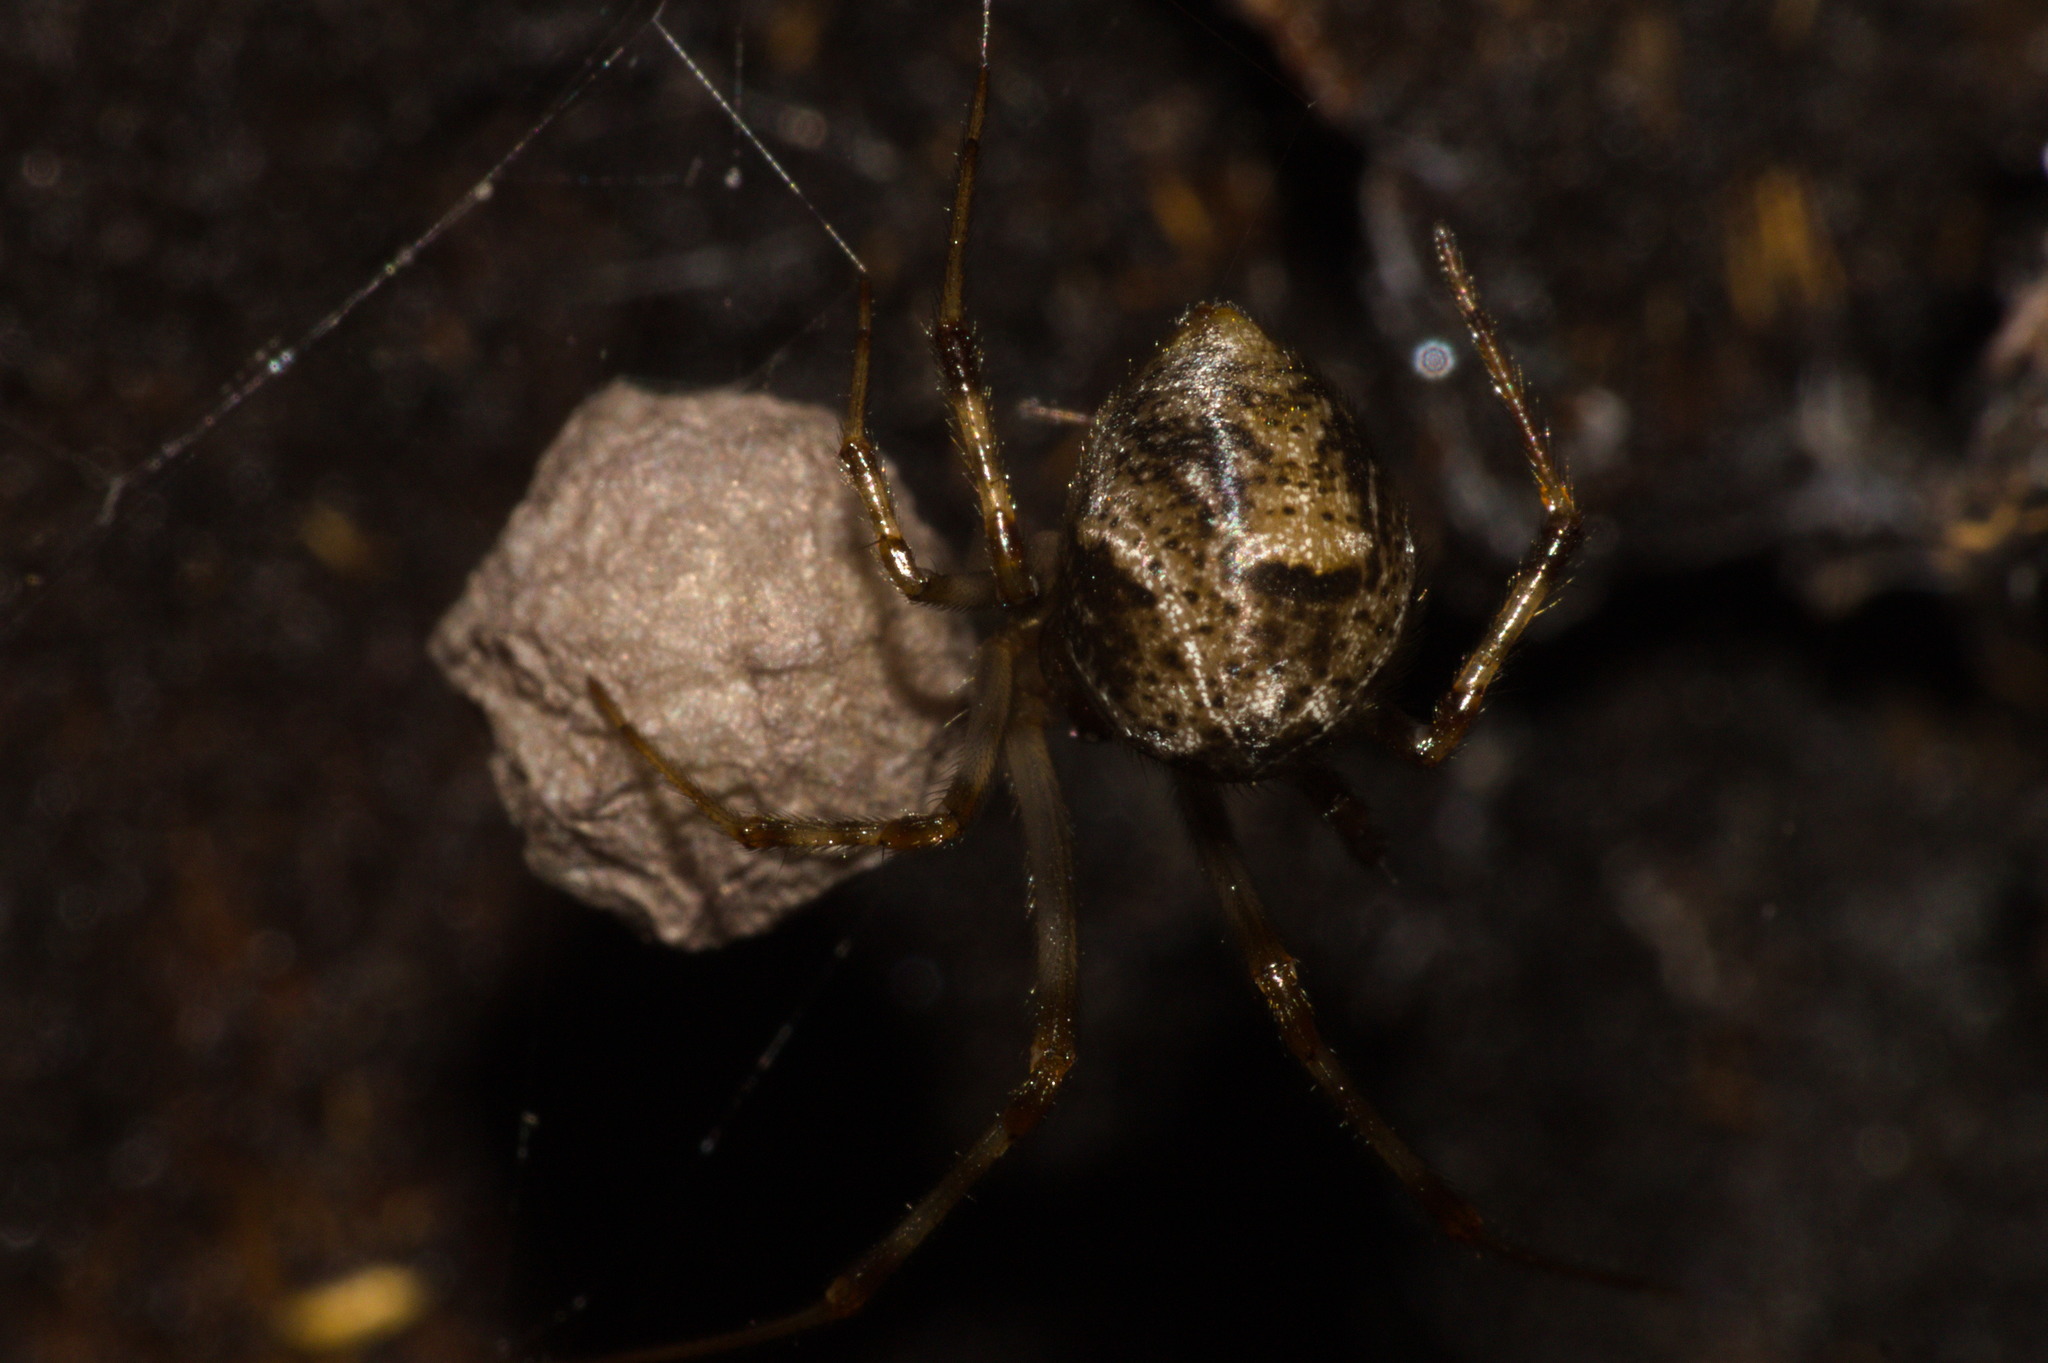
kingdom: Animalia
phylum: Arthropoda
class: Arachnida
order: Araneae
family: Theridiidae
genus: Parasteatoda
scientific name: Parasteatoda tepidariorum
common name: Common house spider
